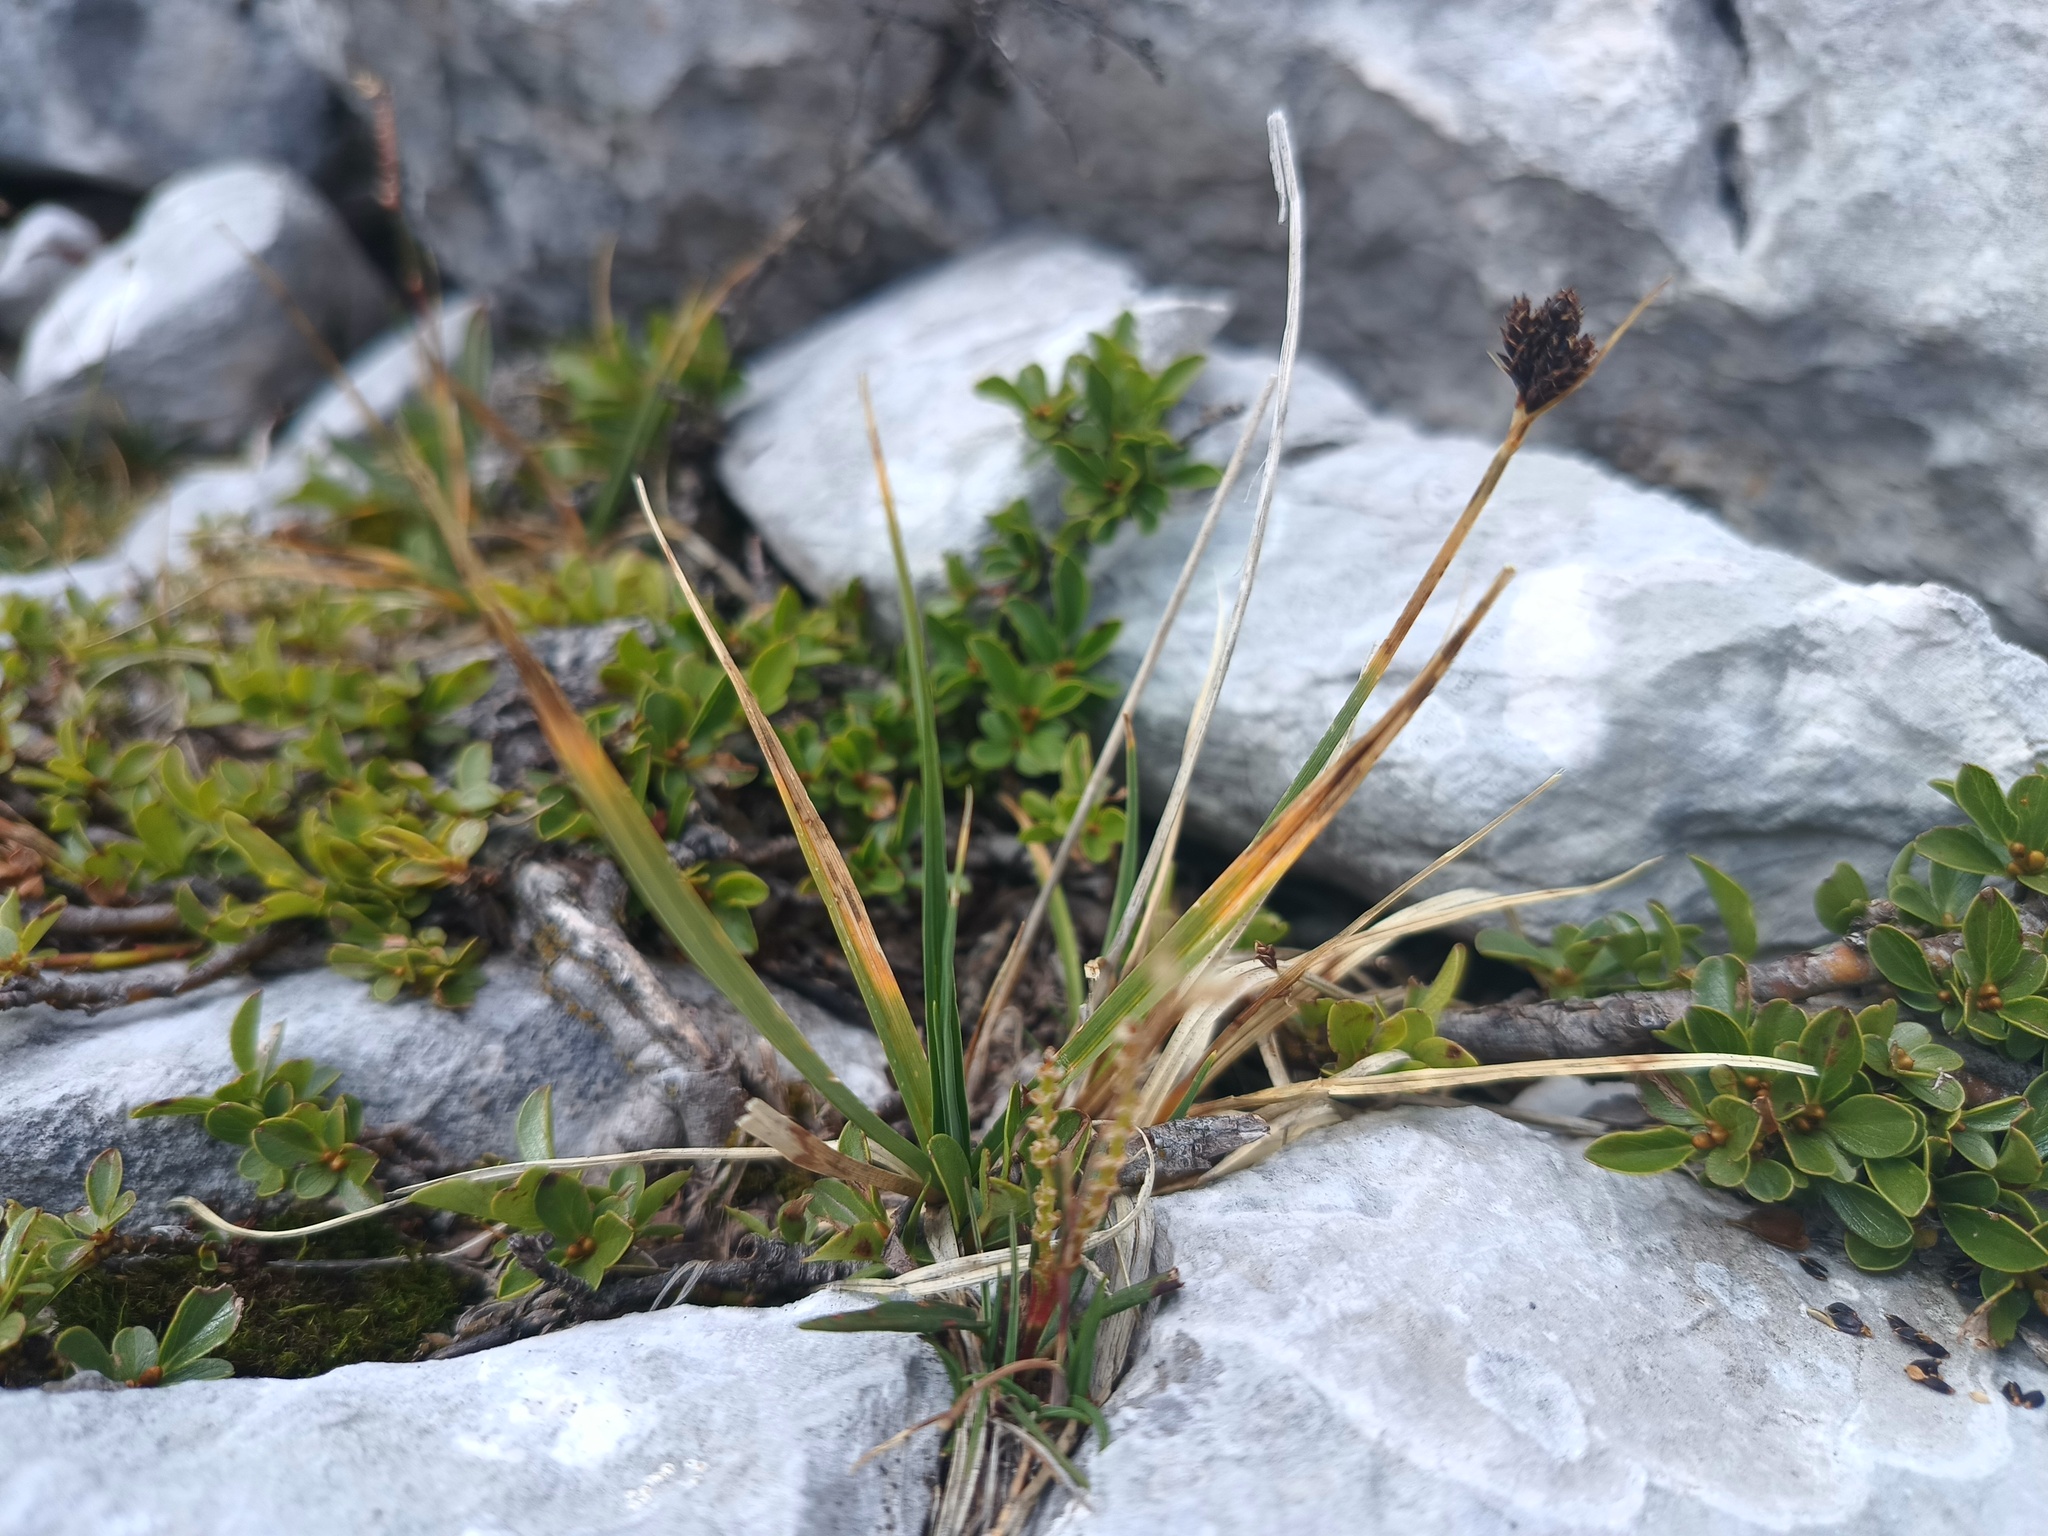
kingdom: Plantae
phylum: Tracheophyta
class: Liliopsida
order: Poales
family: Cyperaceae
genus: Carex
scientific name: Carex atrata
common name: Black alpine sedge
